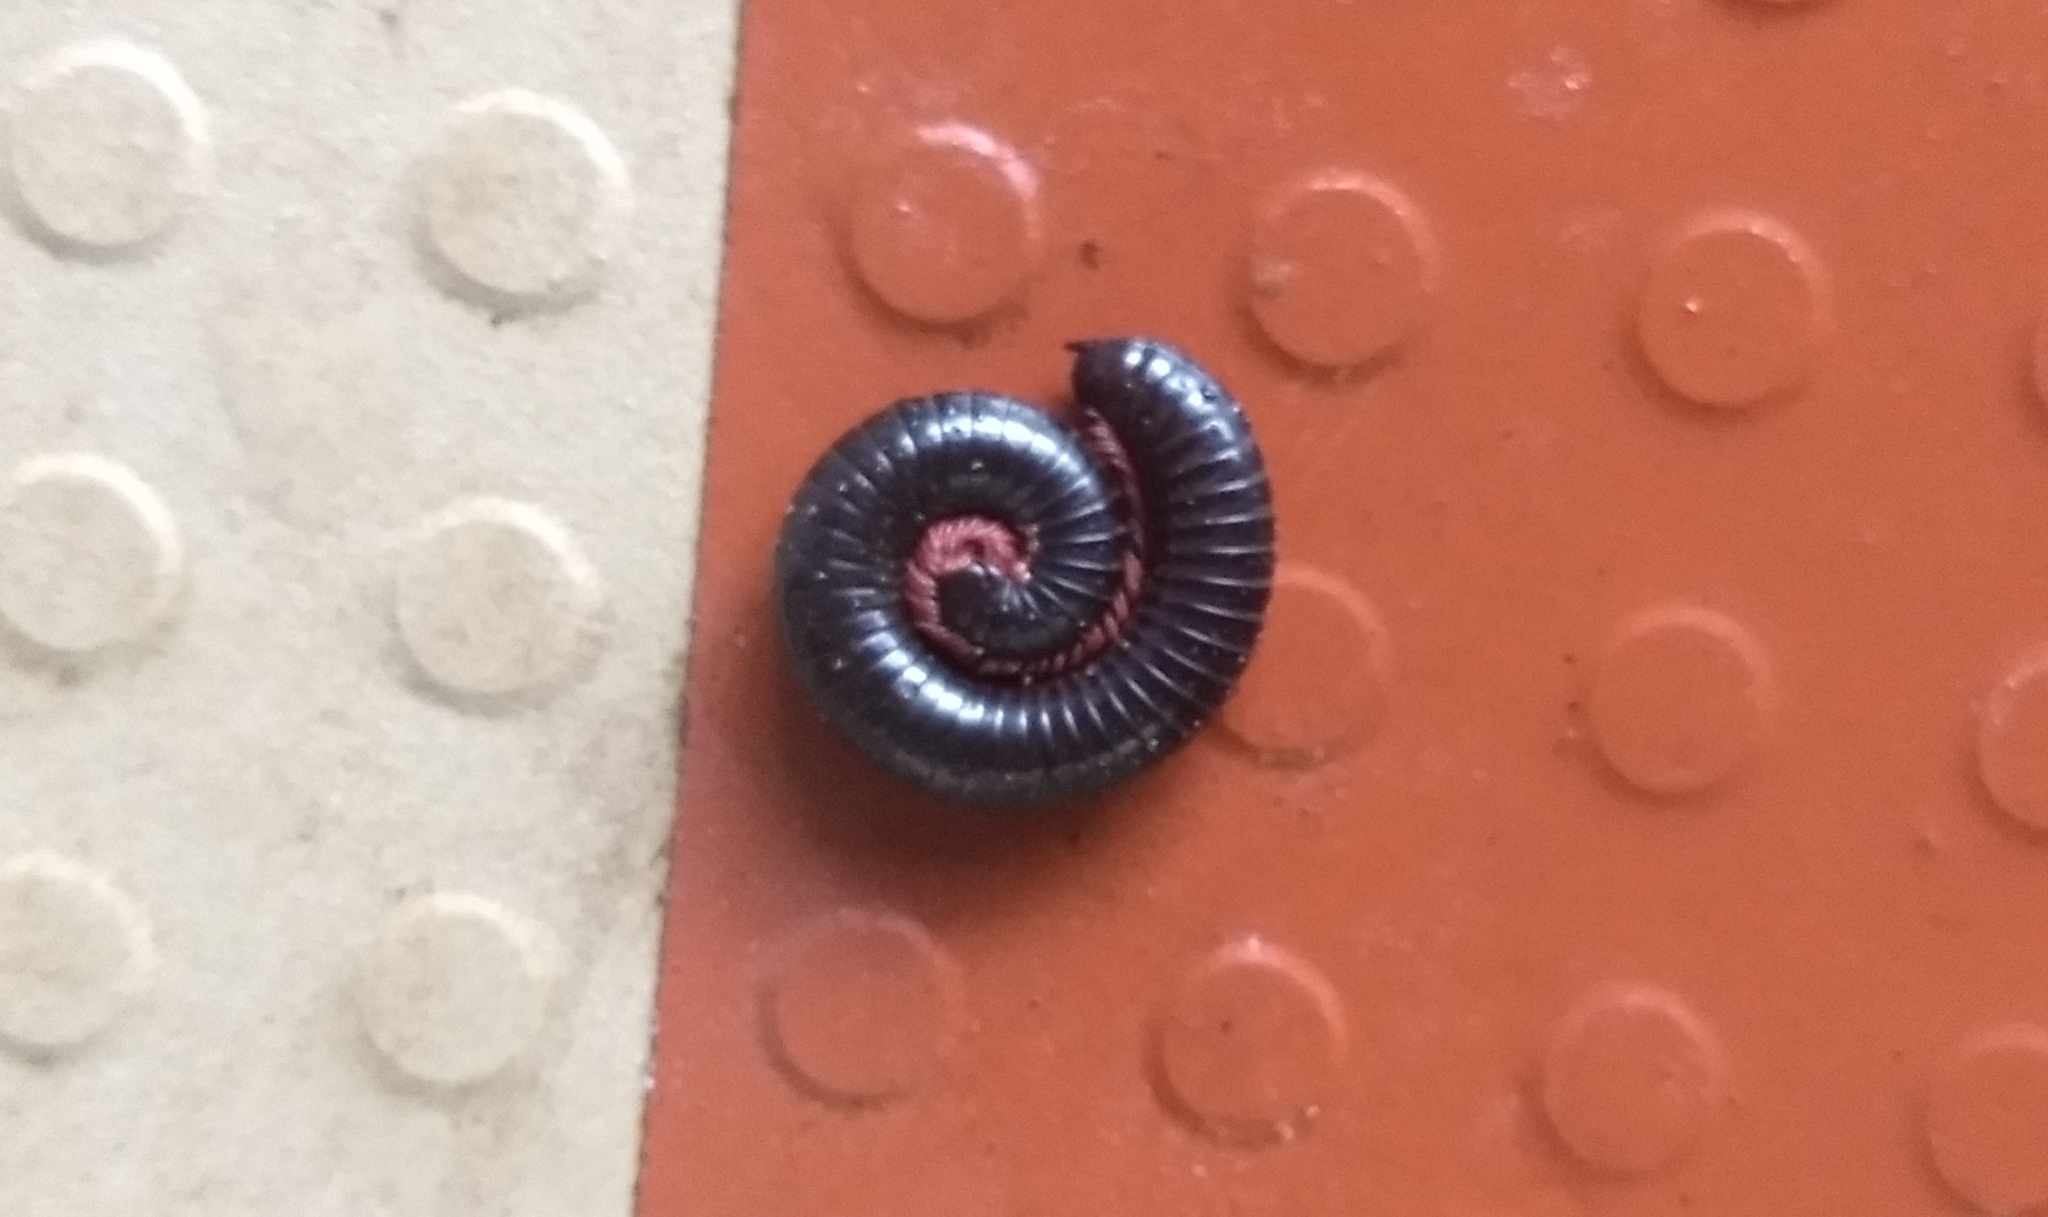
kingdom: Animalia
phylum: Arthropoda
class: Diplopoda
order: Spirostreptida
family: Harpagophoridae
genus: Phyllogonostreptus
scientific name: Phyllogonostreptus nigrolabiatus
